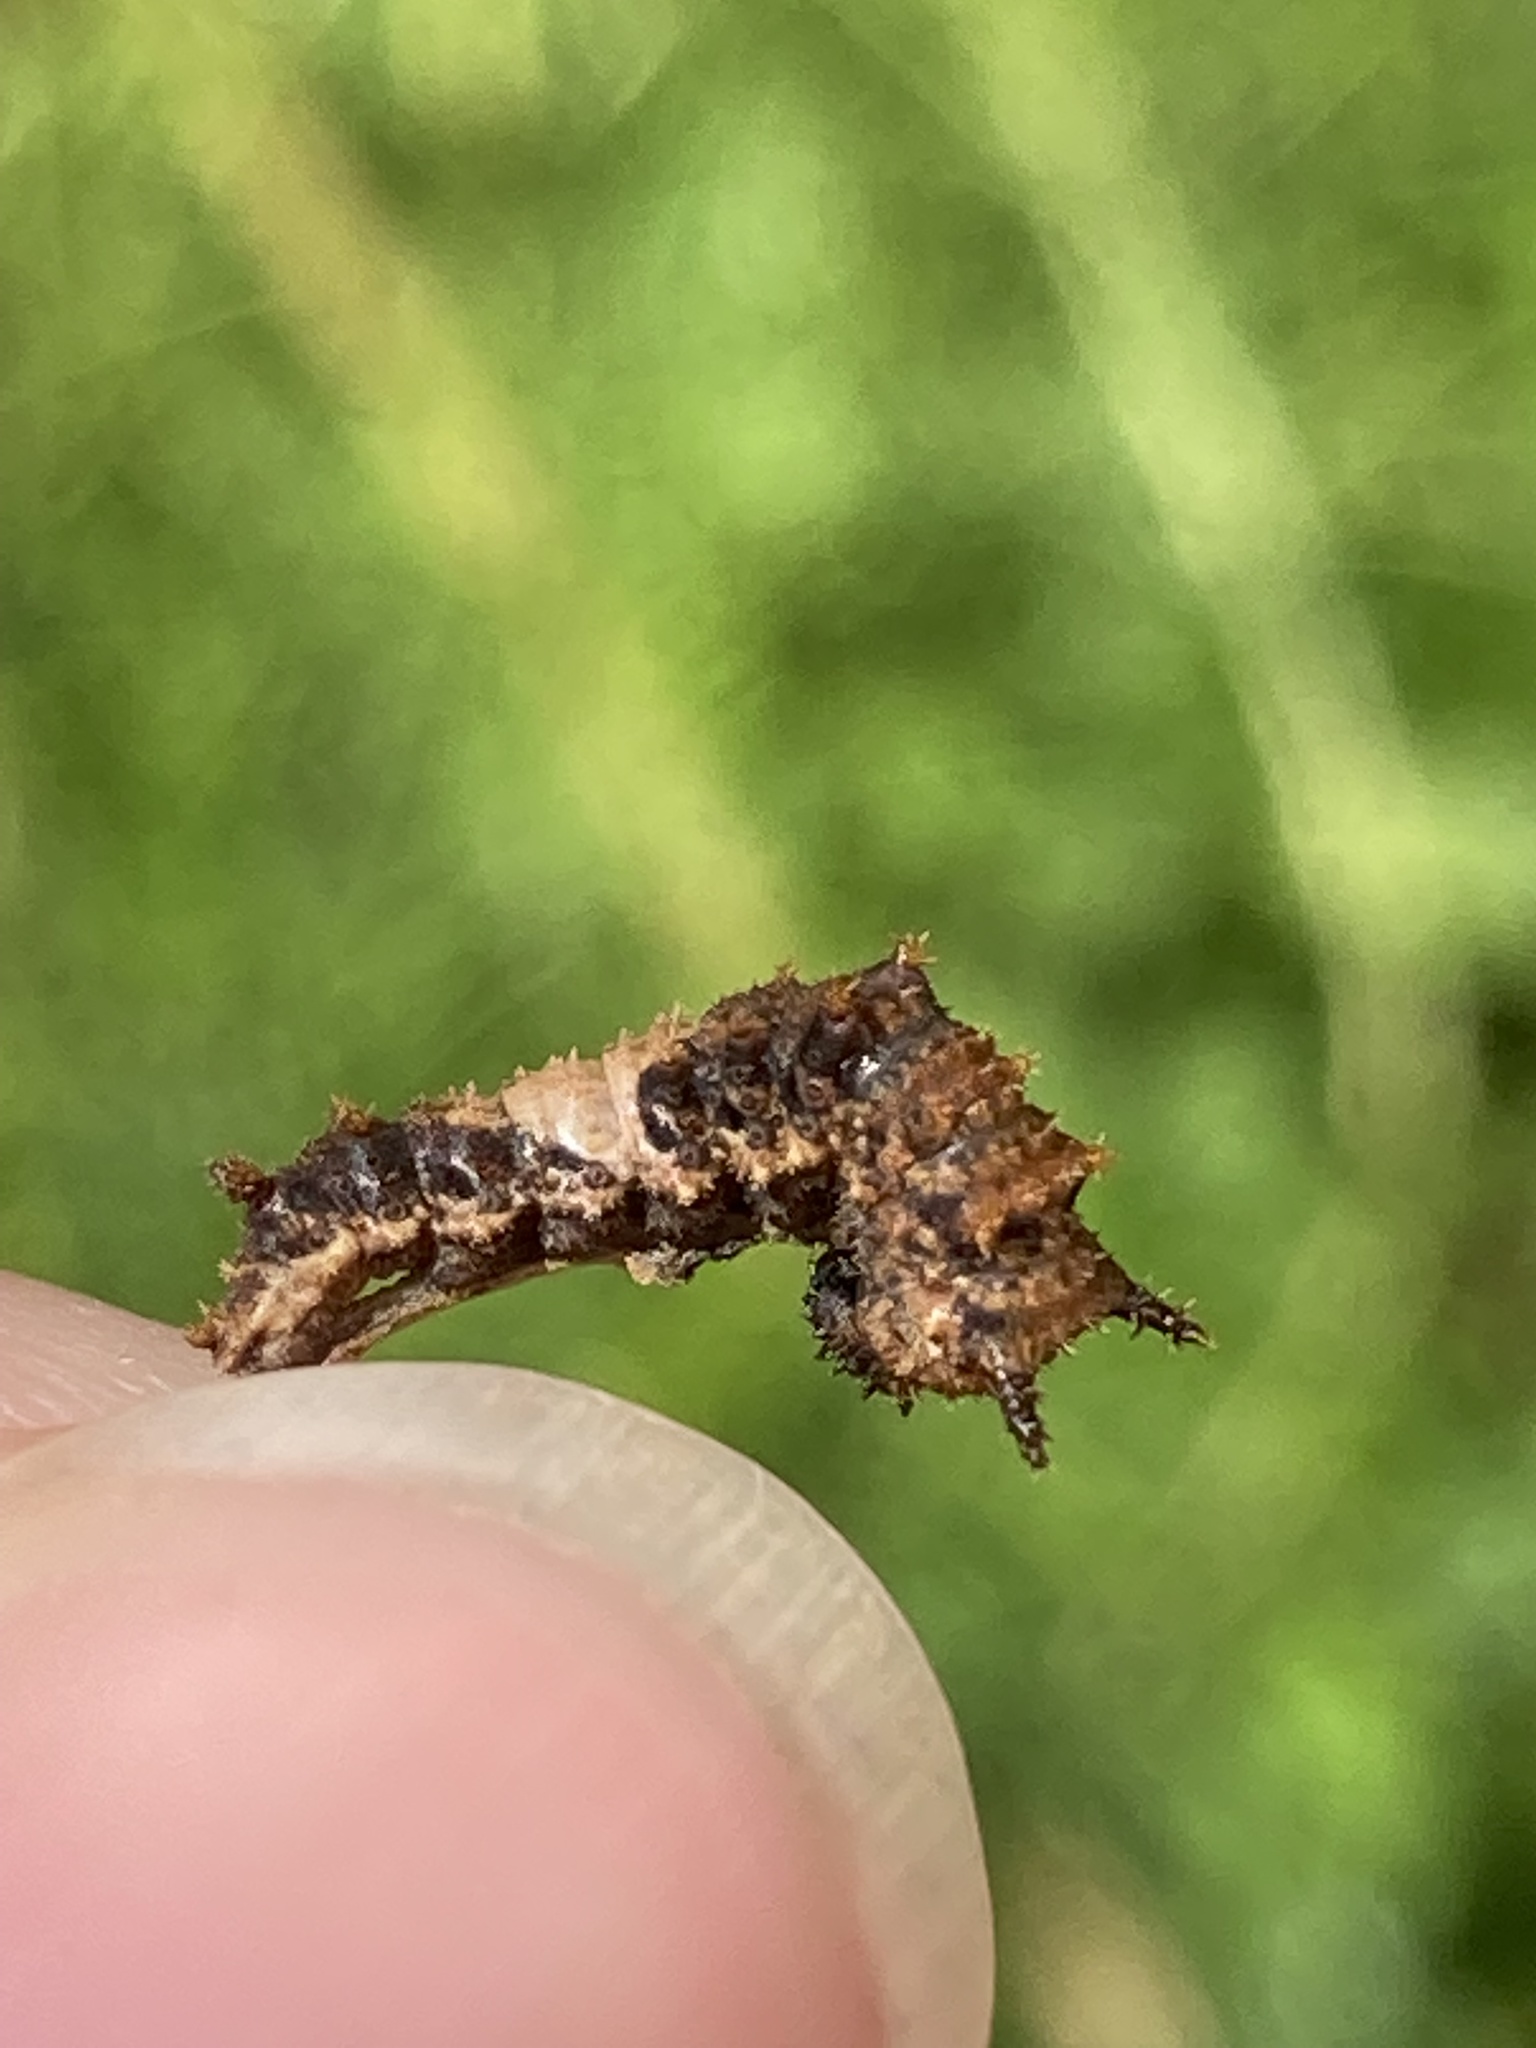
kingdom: Animalia
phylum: Arthropoda
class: Insecta
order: Lepidoptera
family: Nymphalidae
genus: Limenitis
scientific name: Limenitis archippus
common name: Viceroy
